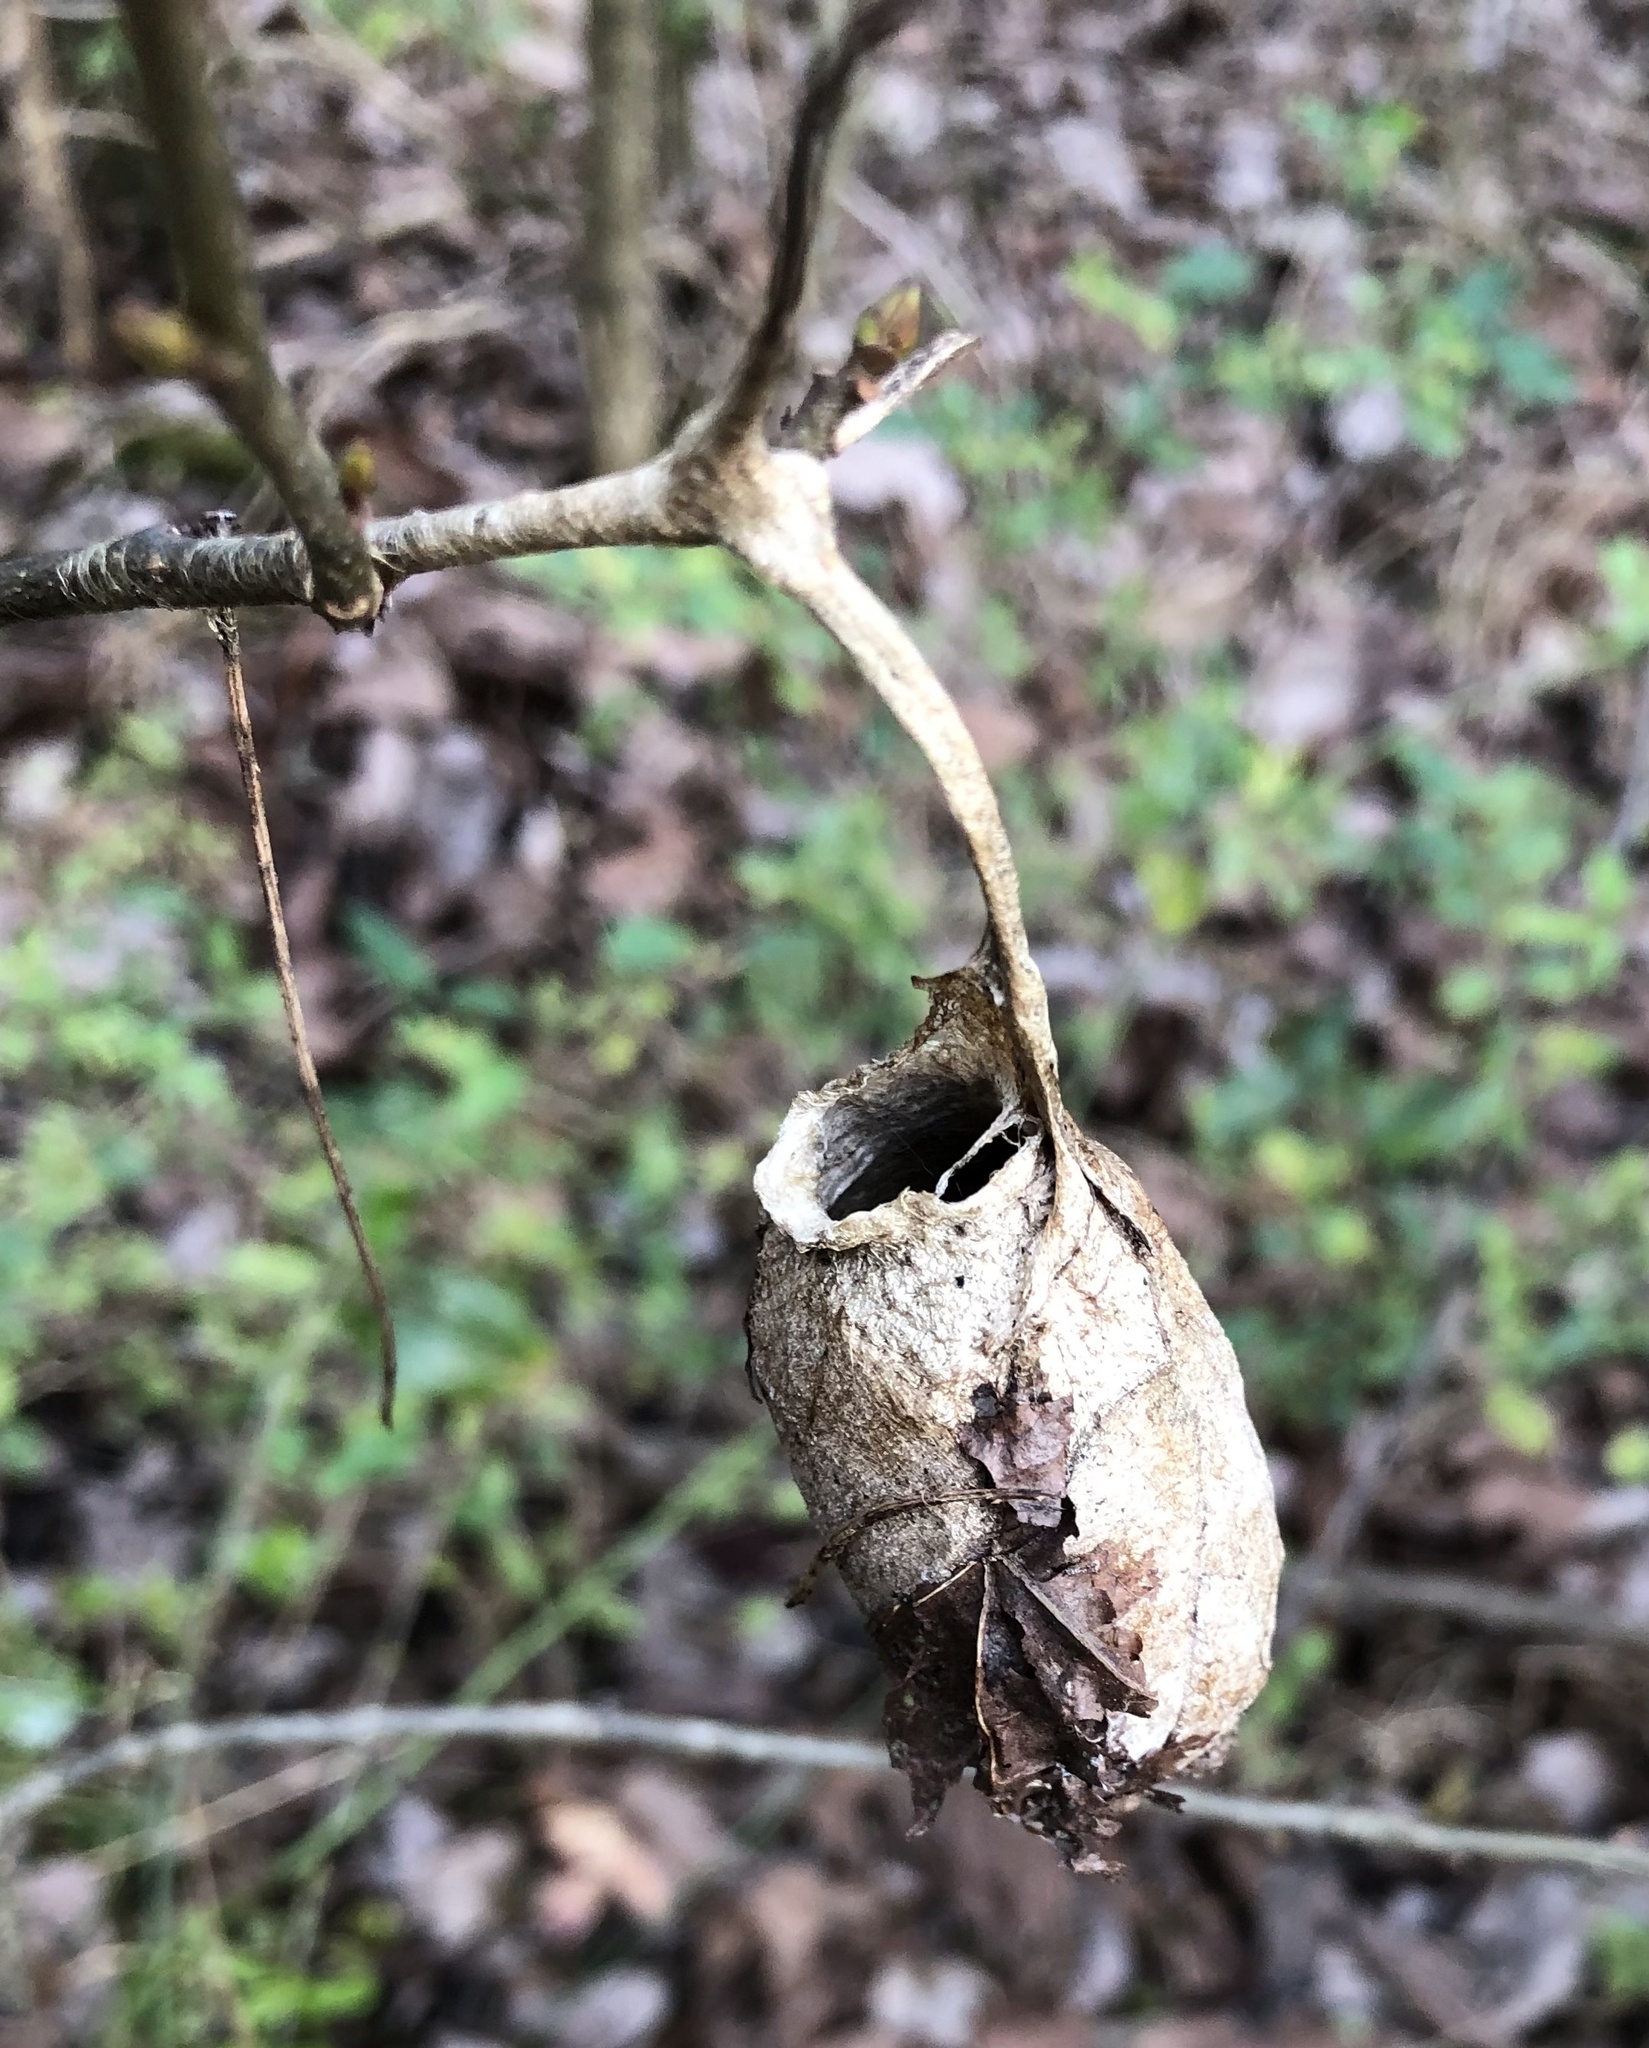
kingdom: Animalia
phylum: Arthropoda
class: Insecta
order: Lepidoptera
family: Saturniidae
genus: Antheraea
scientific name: Antheraea polyphemus
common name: Polyphemus moth
